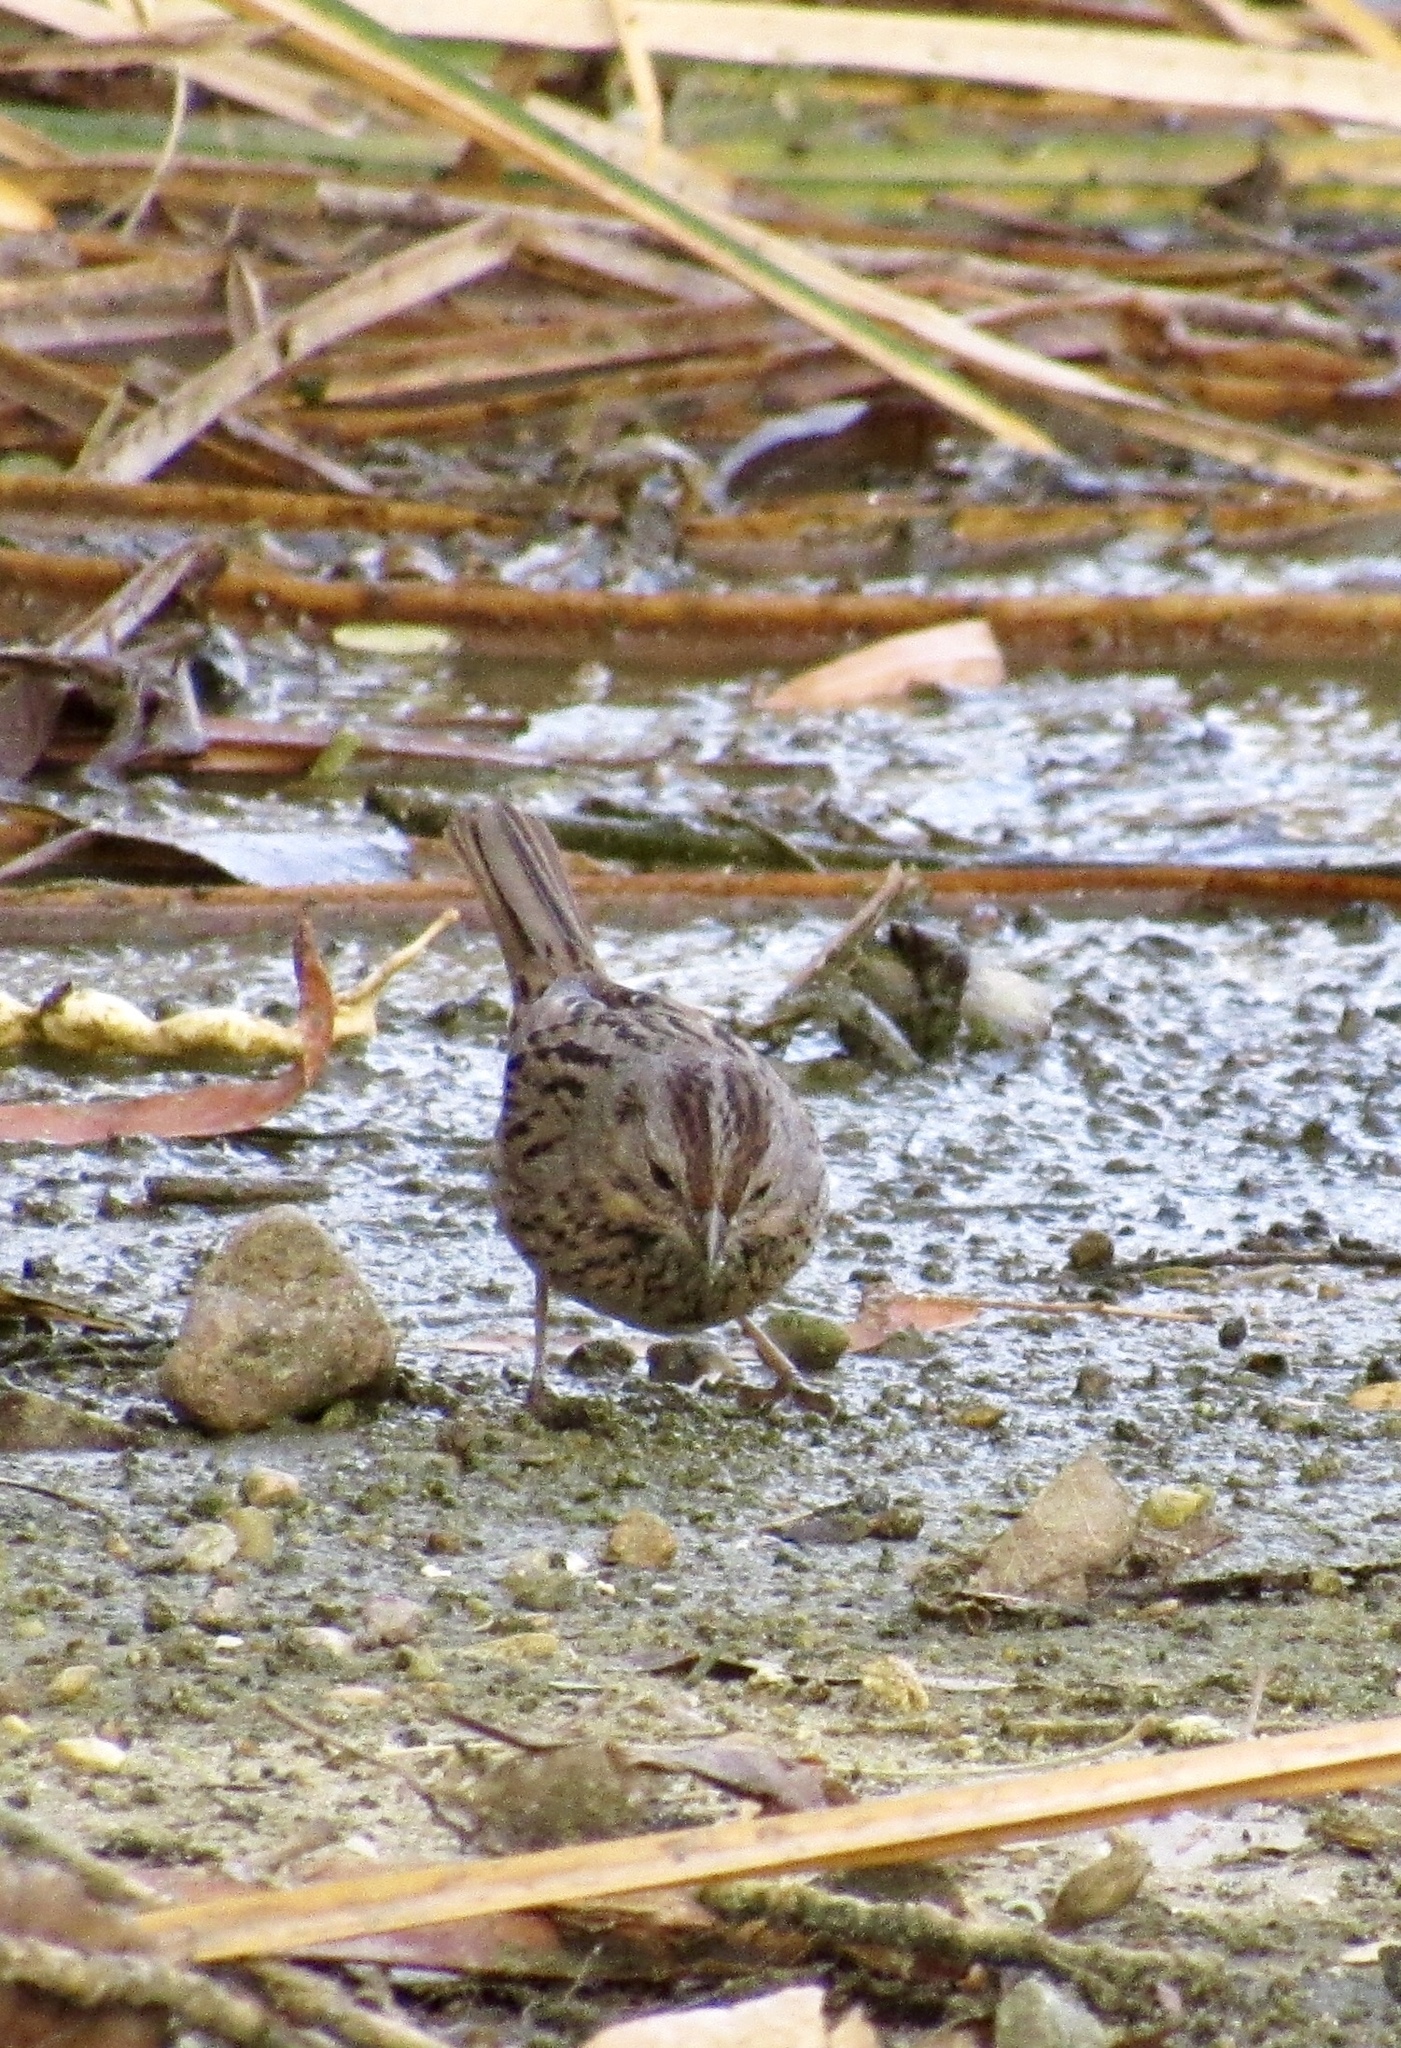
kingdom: Animalia
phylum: Chordata
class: Aves
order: Passeriformes
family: Passerellidae
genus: Melospiza
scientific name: Melospiza lincolnii
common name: Lincoln's sparrow
